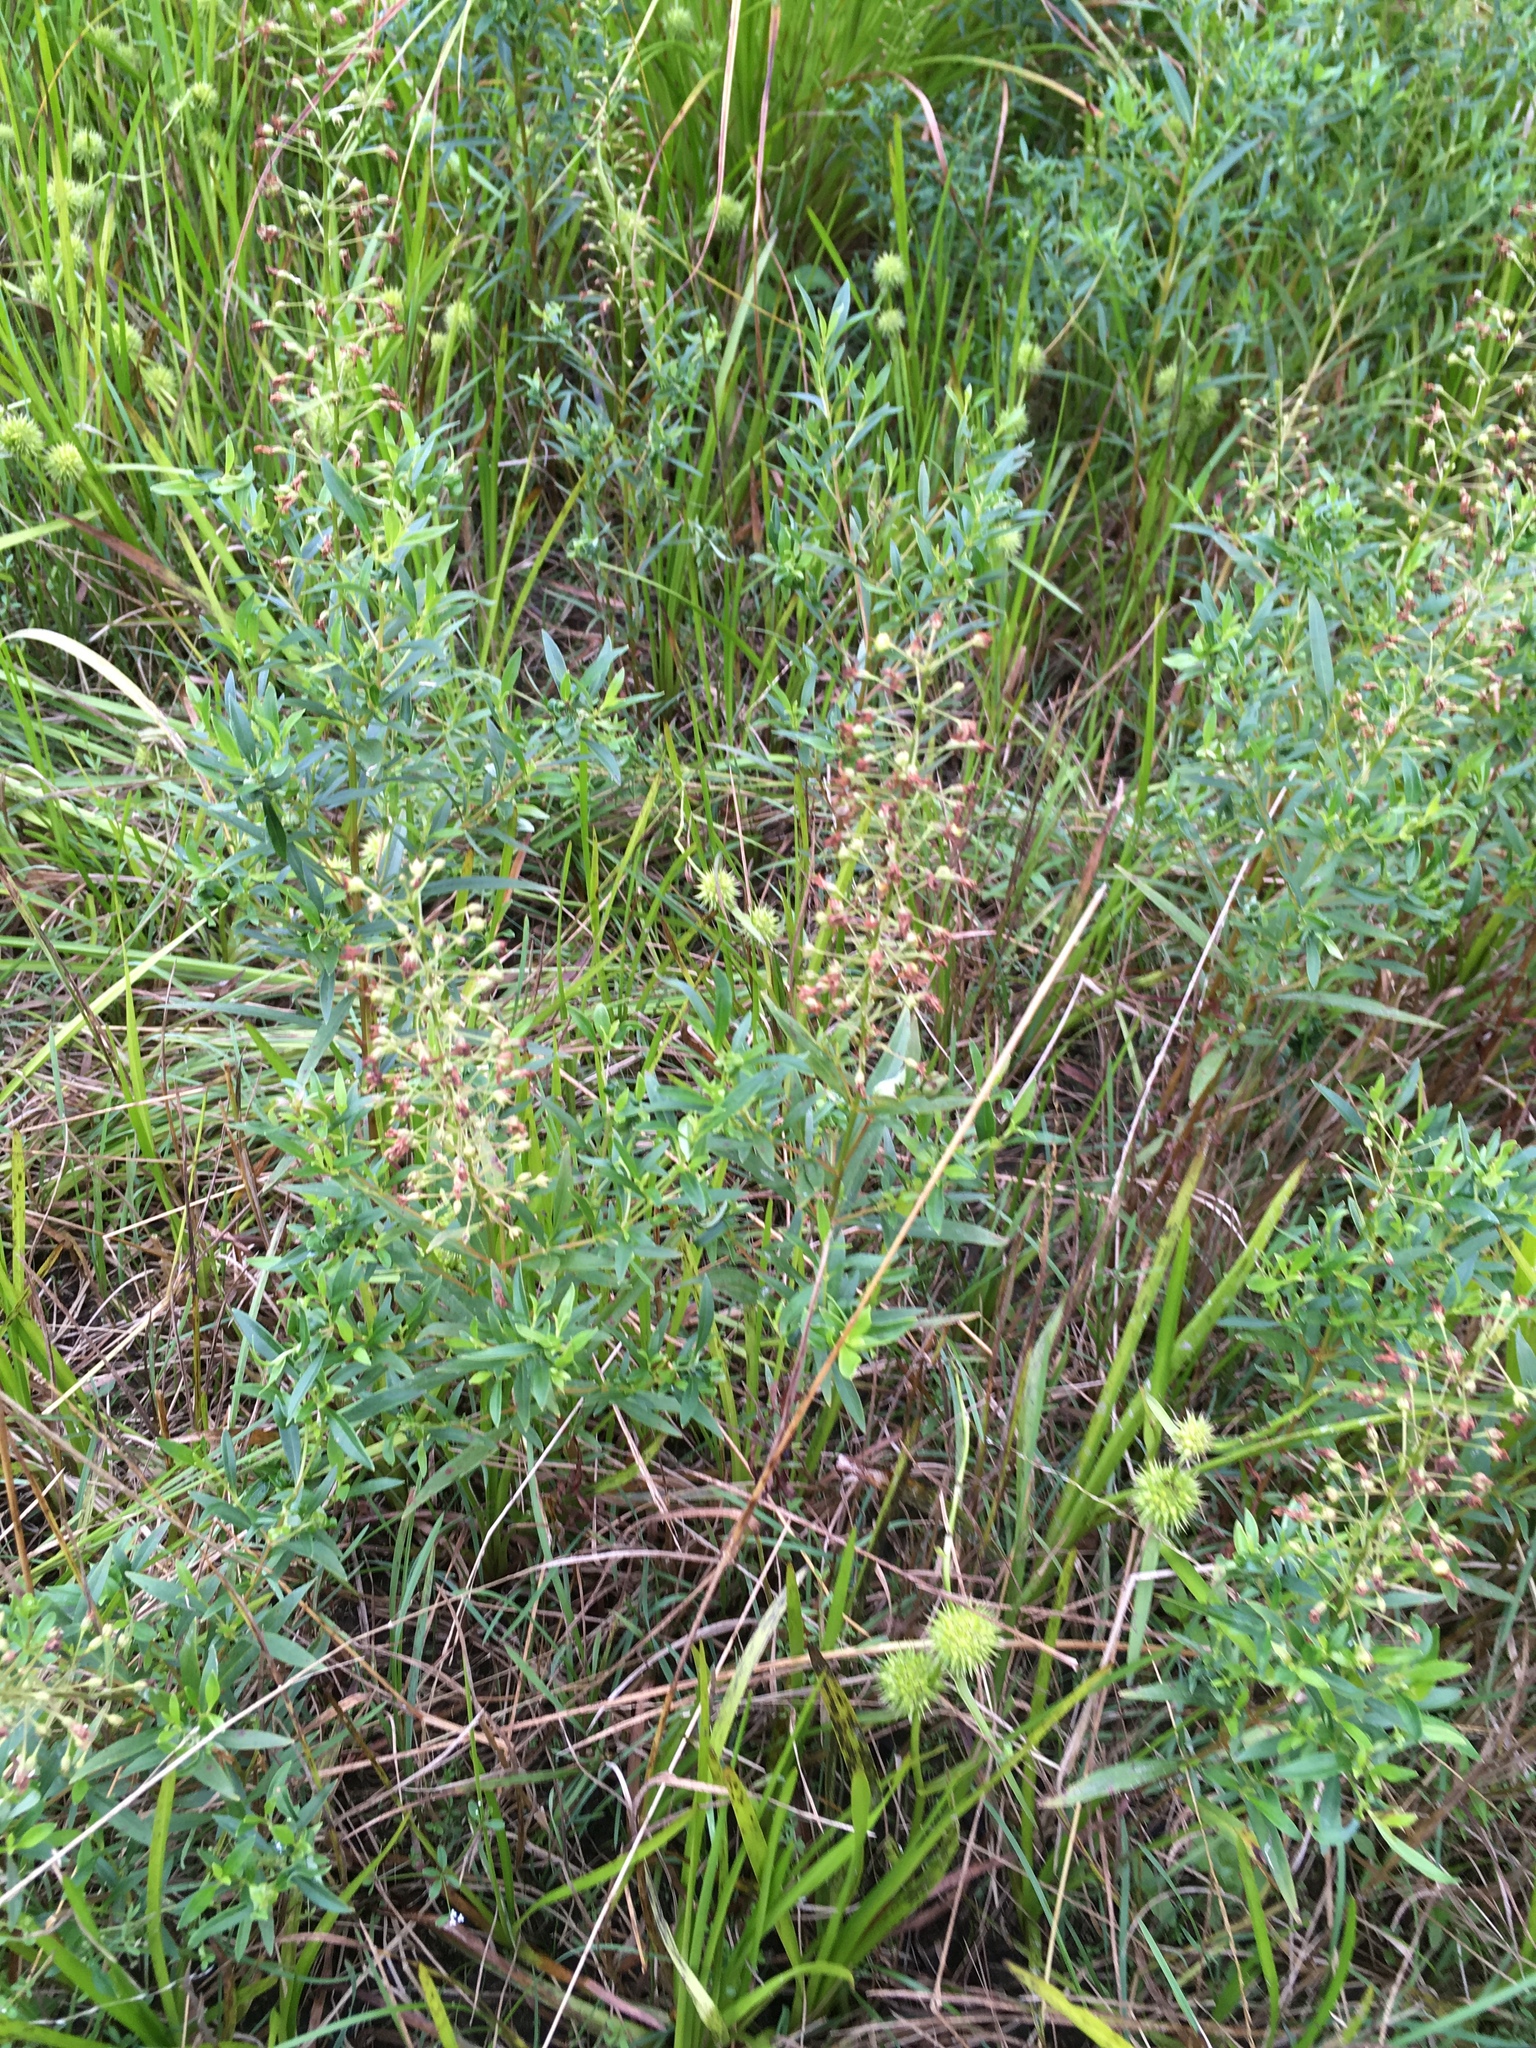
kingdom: Plantae
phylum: Tracheophyta
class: Magnoliopsida
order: Ericales
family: Primulaceae
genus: Lysimachia
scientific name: Lysimachia terrestris
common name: Lake loosestrife
